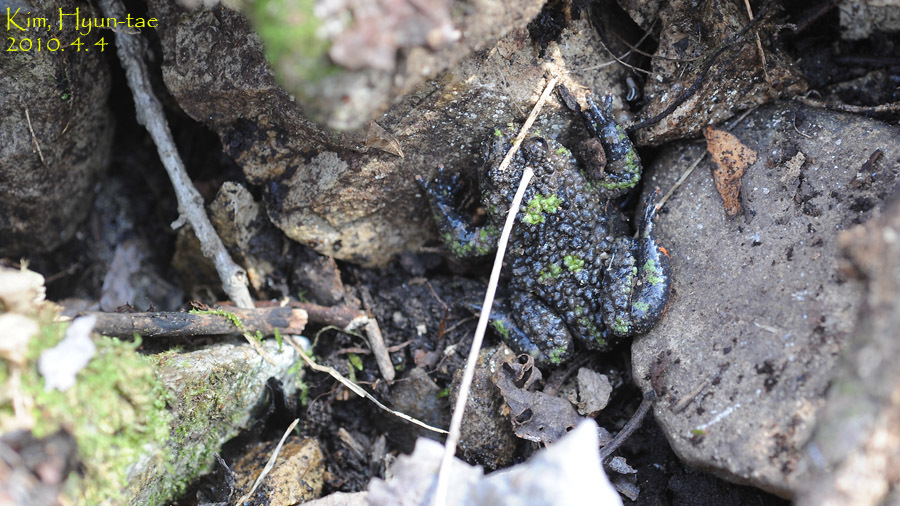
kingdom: Animalia
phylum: Chordata
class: Amphibia
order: Anura
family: Bombinatoridae
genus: Bombina
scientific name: Bombina orientalis
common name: Oriental firebelly toad
